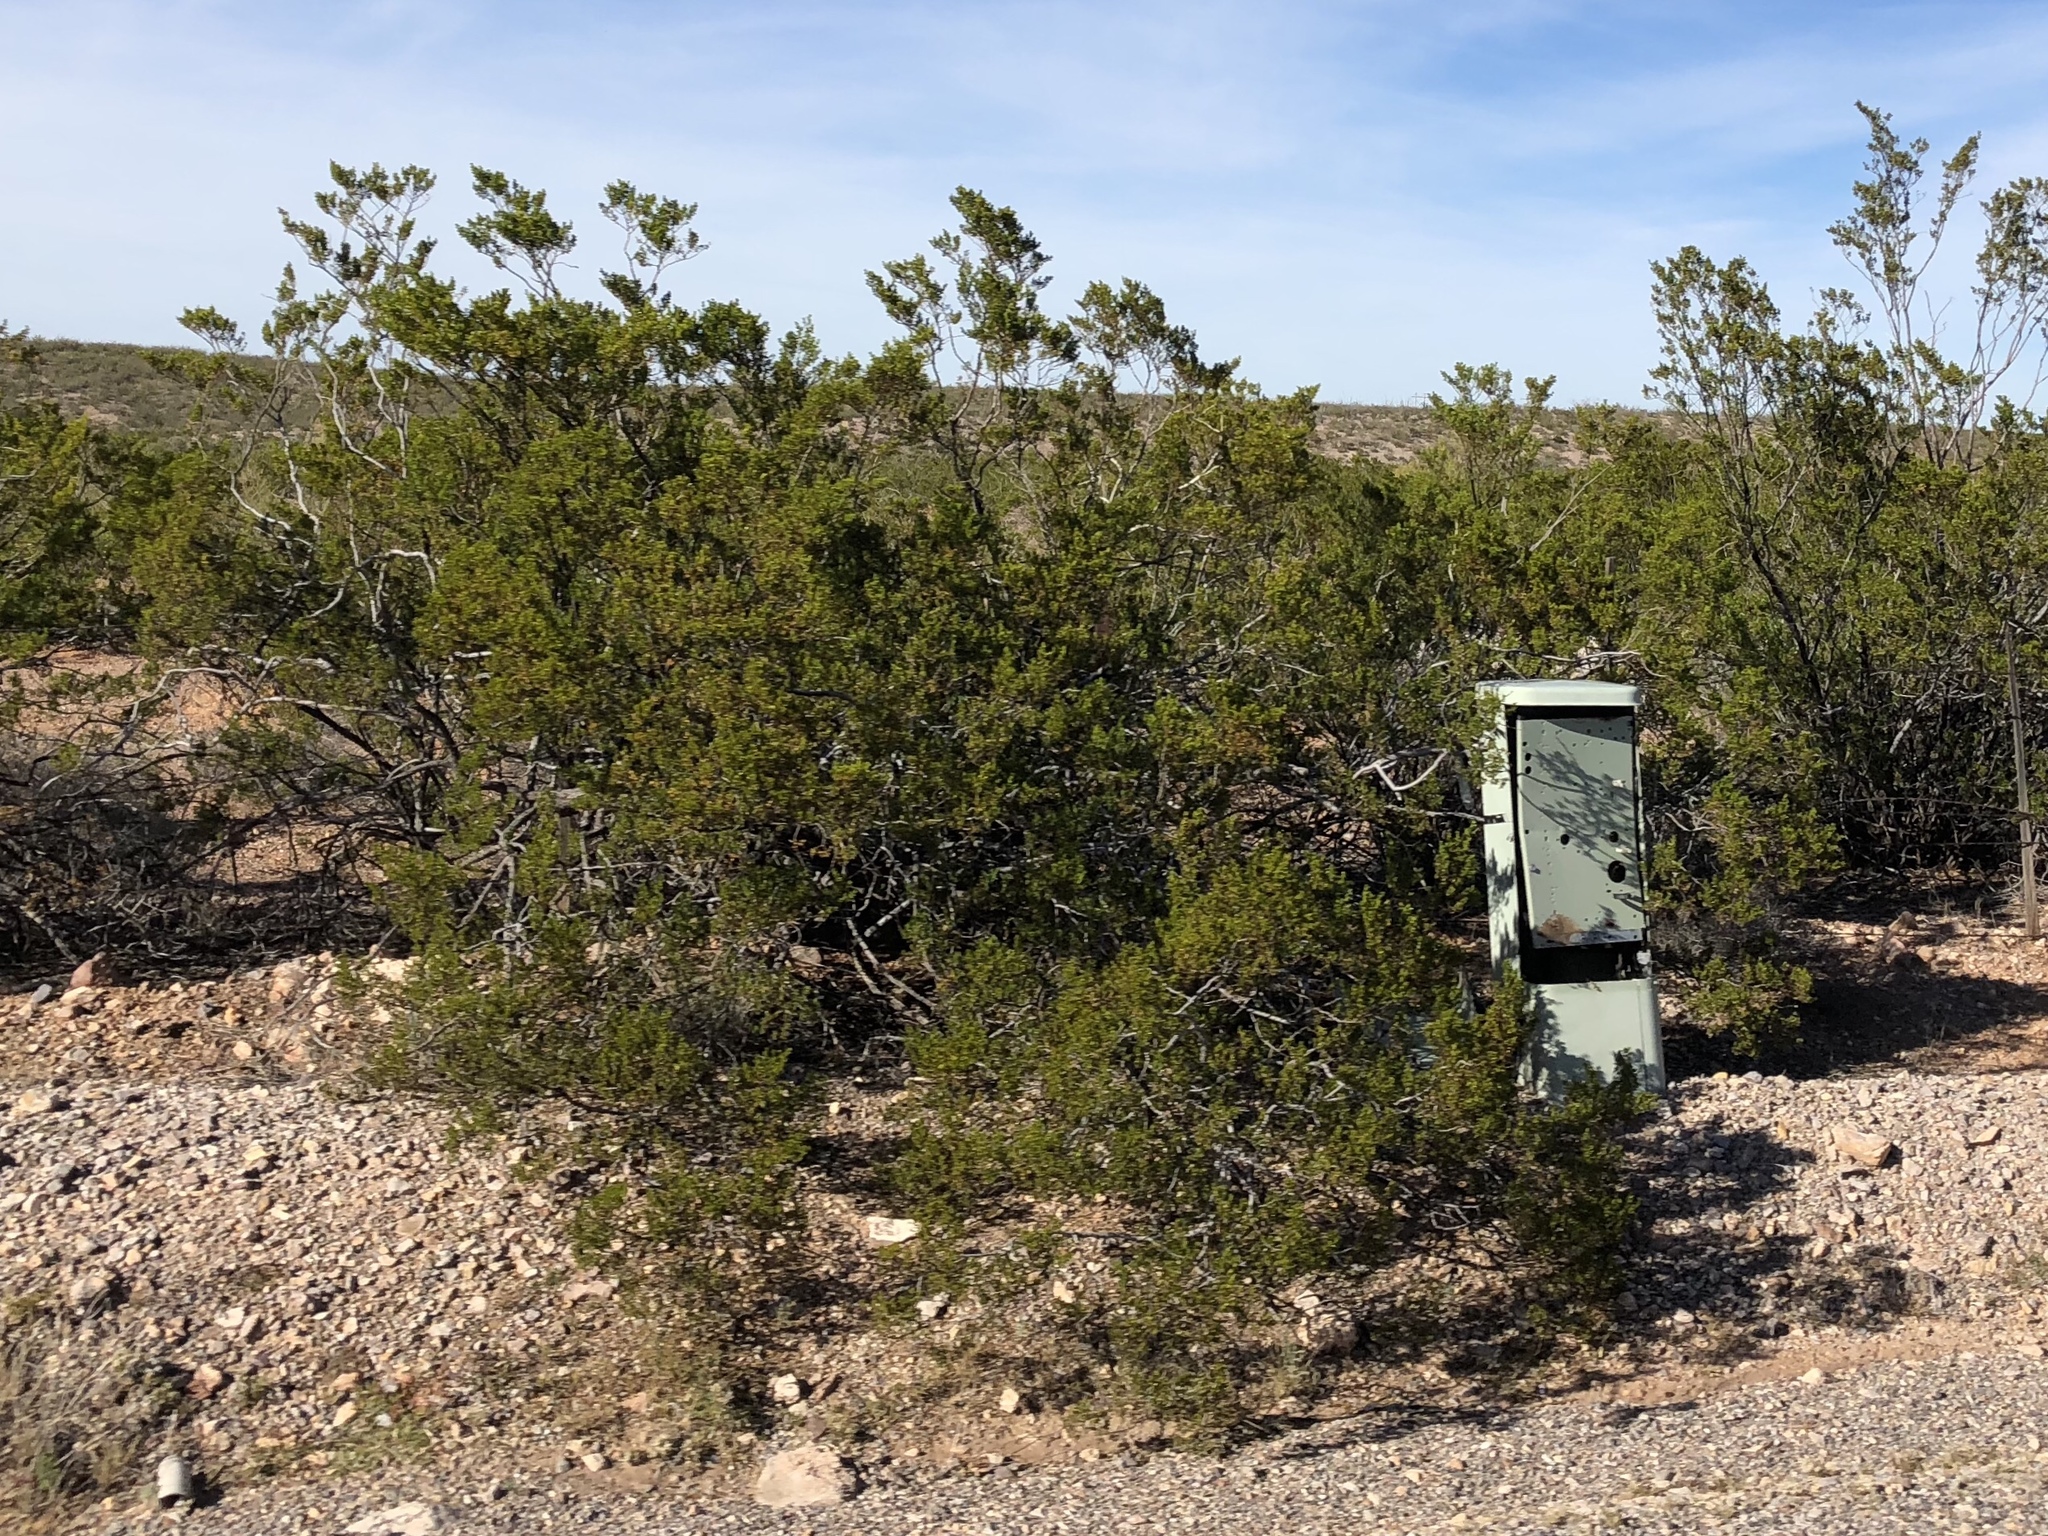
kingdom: Plantae
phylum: Tracheophyta
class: Magnoliopsida
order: Zygophyllales
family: Zygophyllaceae
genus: Larrea
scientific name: Larrea tridentata
